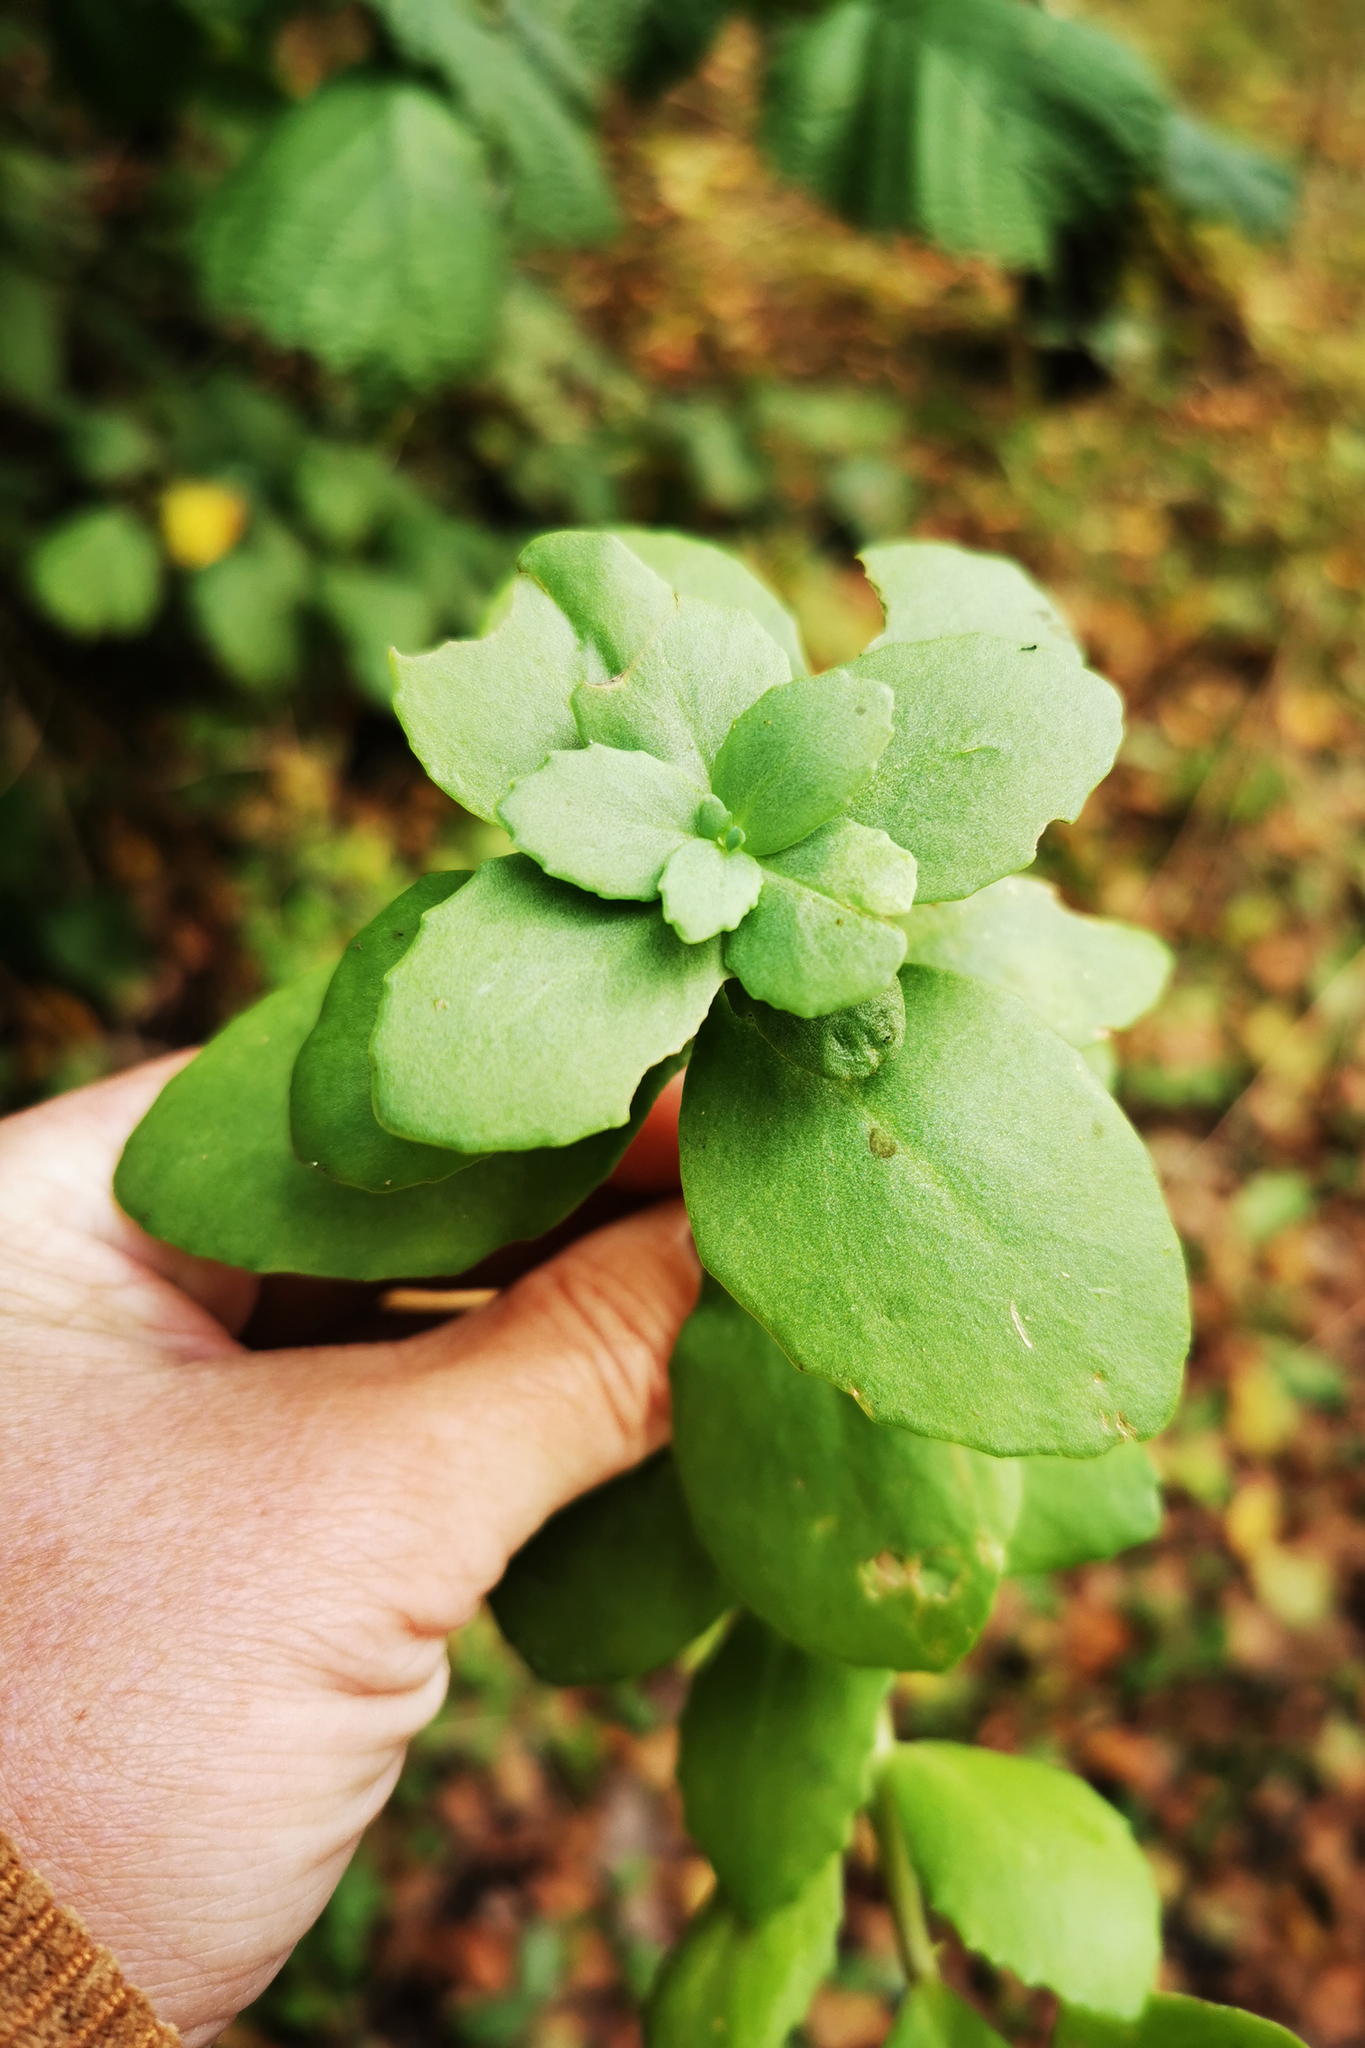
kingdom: Plantae
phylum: Tracheophyta
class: Magnoliopsida
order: Saxifragales
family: Crassulaceae
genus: Hylotelephium
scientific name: Hylotelephium telephium
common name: Live-forever
